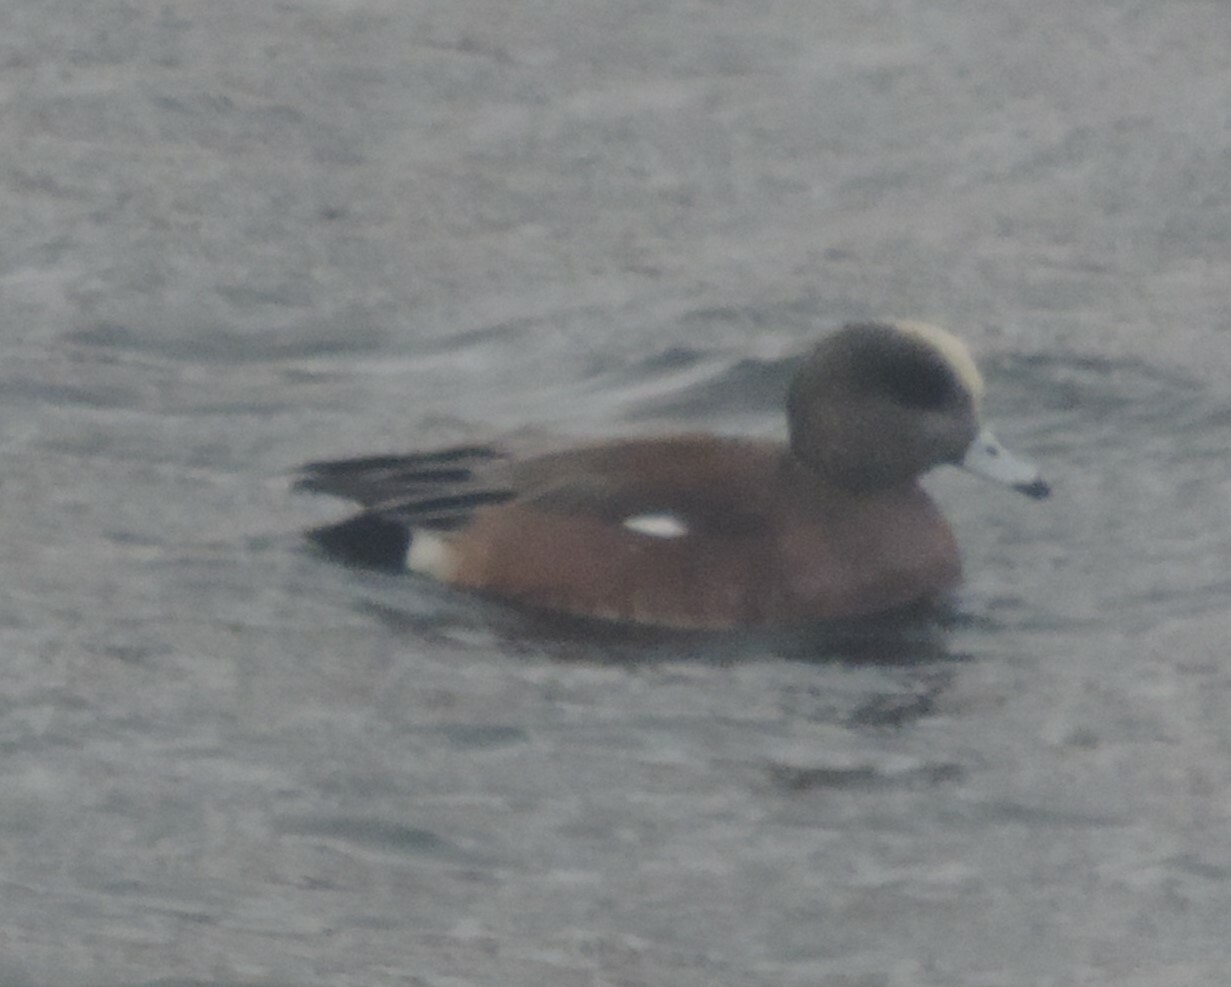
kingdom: Animalia
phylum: Chordata
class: Aves
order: Anseriformes
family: Anatidae
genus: Mareca
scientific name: Mareca americana
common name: American wigeon
